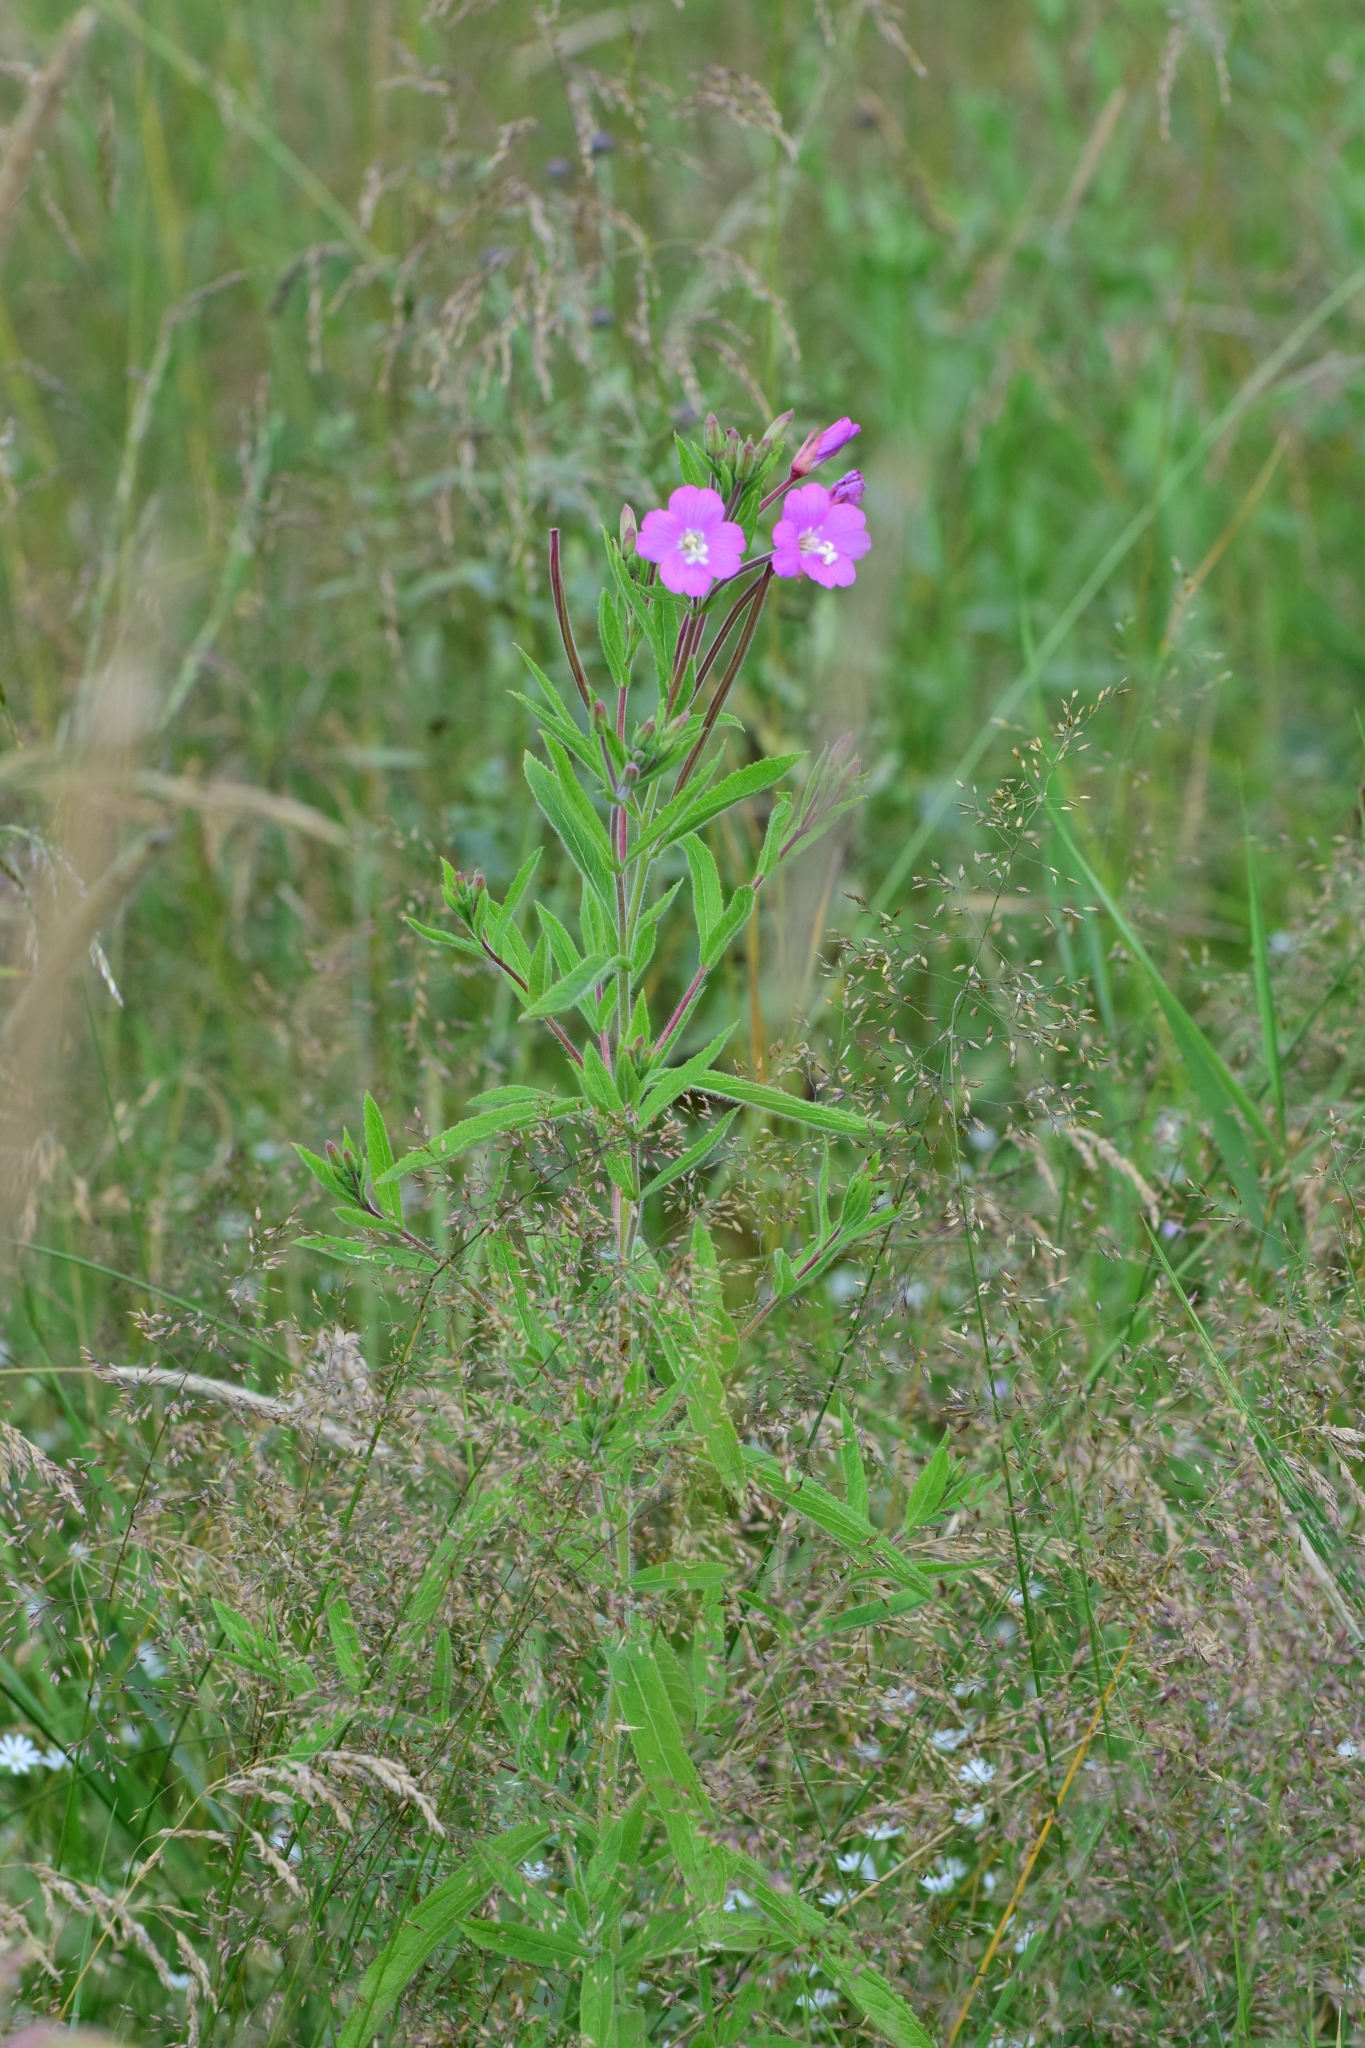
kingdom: Plantae
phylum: Tracheophyta
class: Magnoliopsida
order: Myrtales
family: Onagraceae
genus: Epilobium
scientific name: Epilobium hirsutum
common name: Great willowherb
